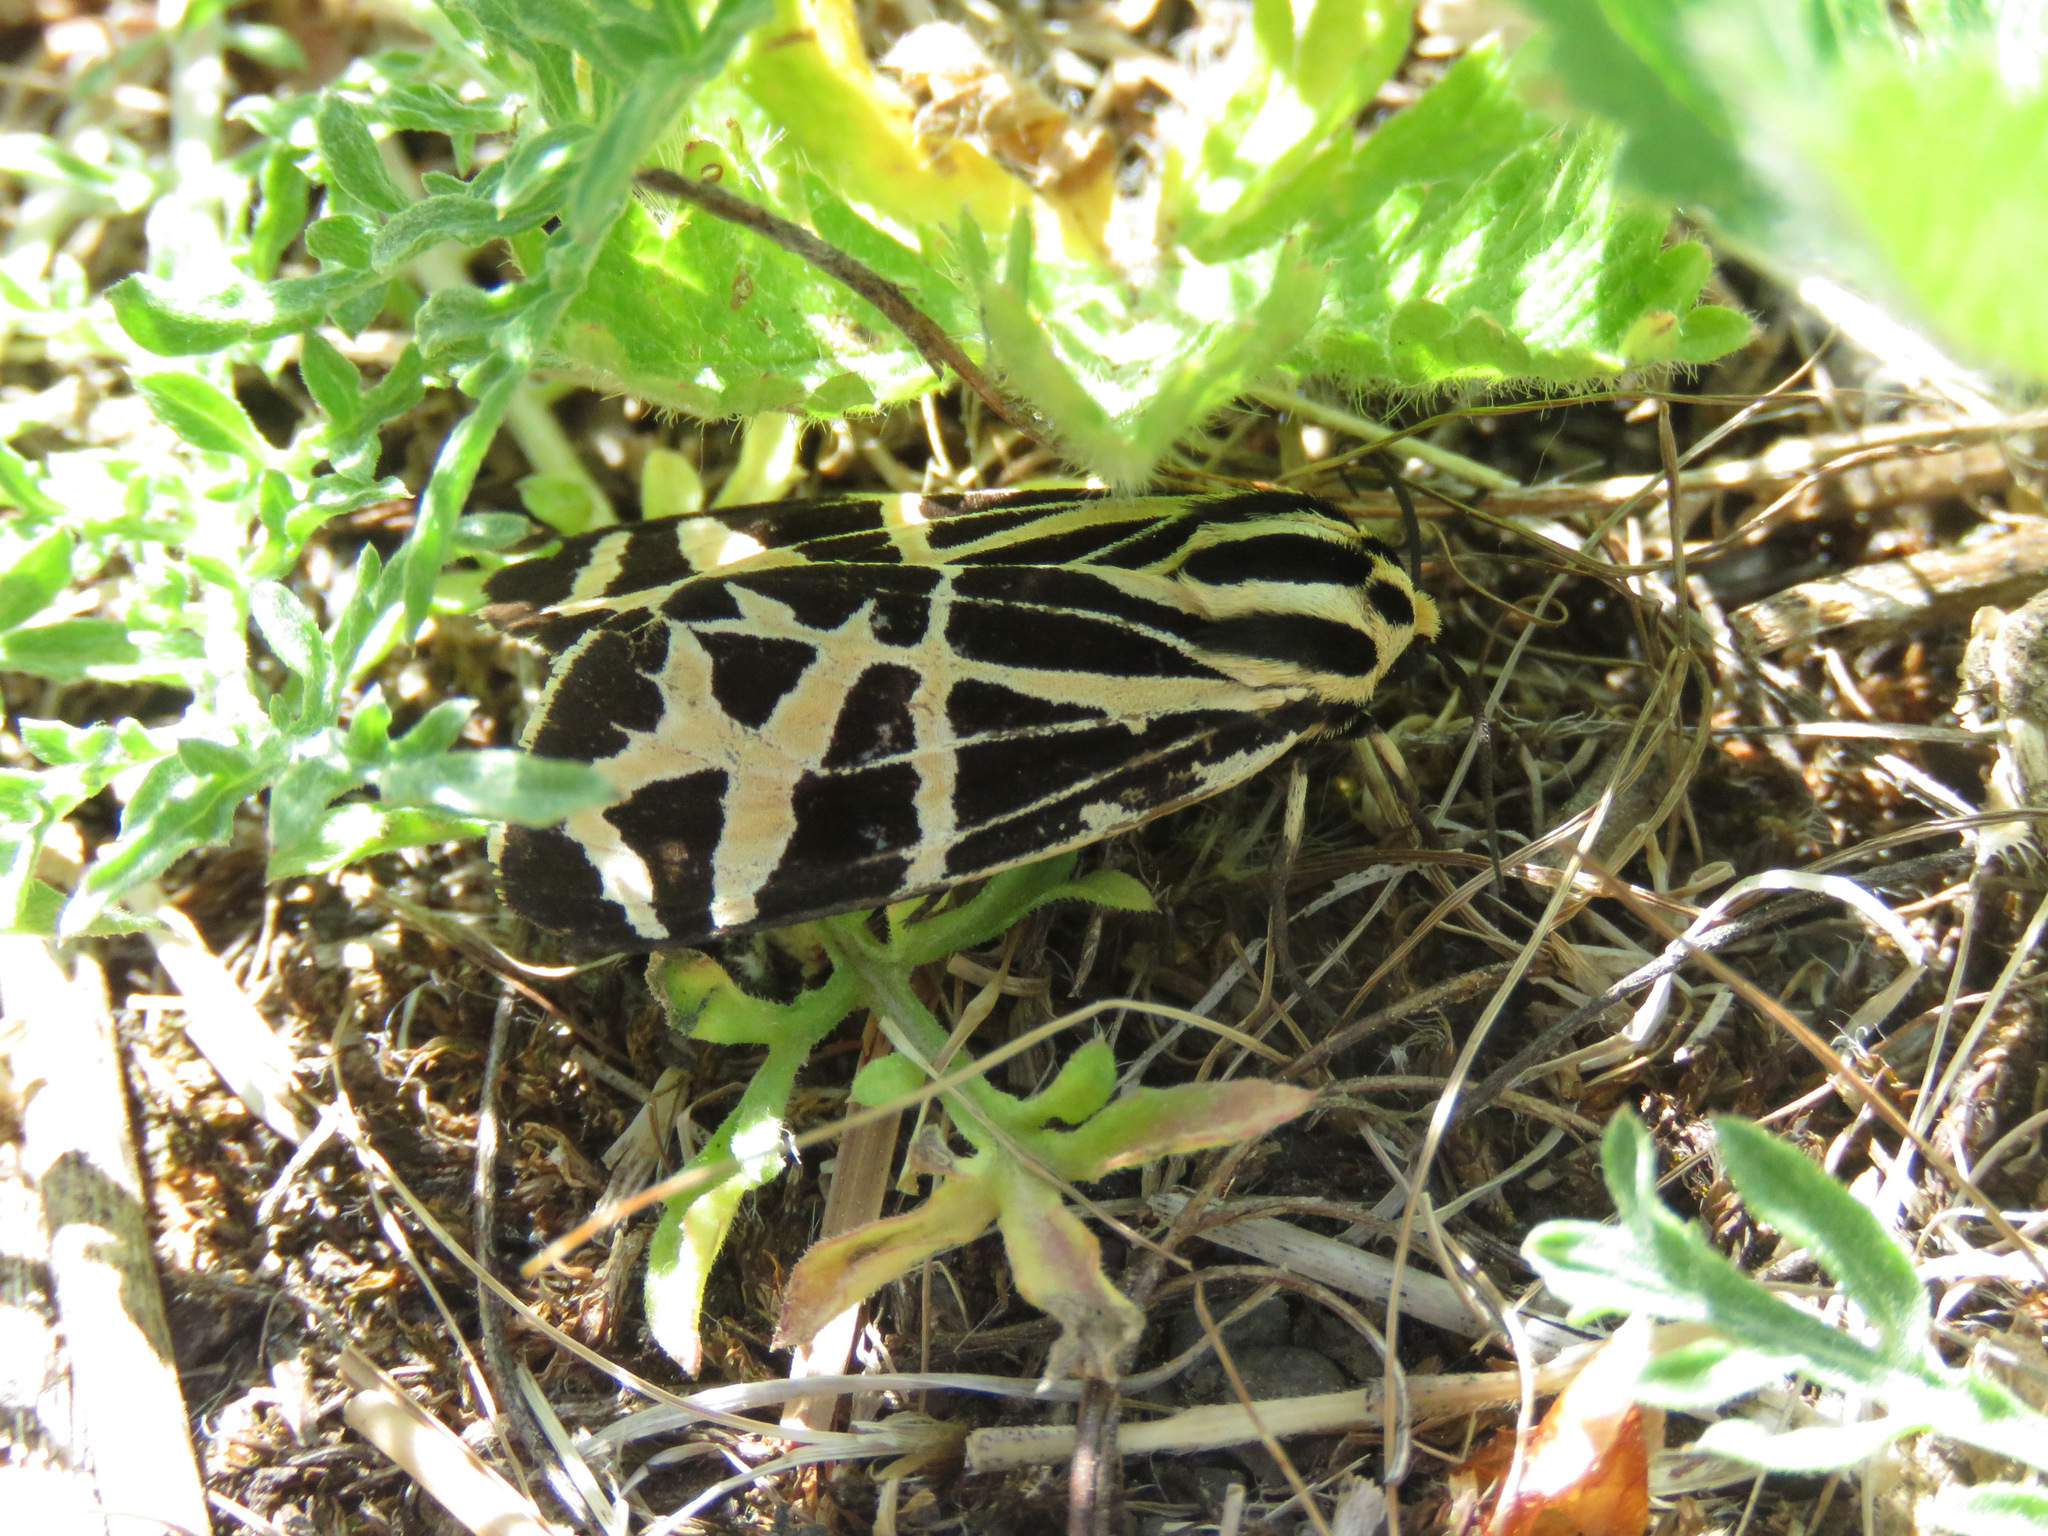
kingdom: Animalia
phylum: Arthropoda
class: Insecta
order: Lepidoptera
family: Erebidae
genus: Apantesis
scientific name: Apantesis
